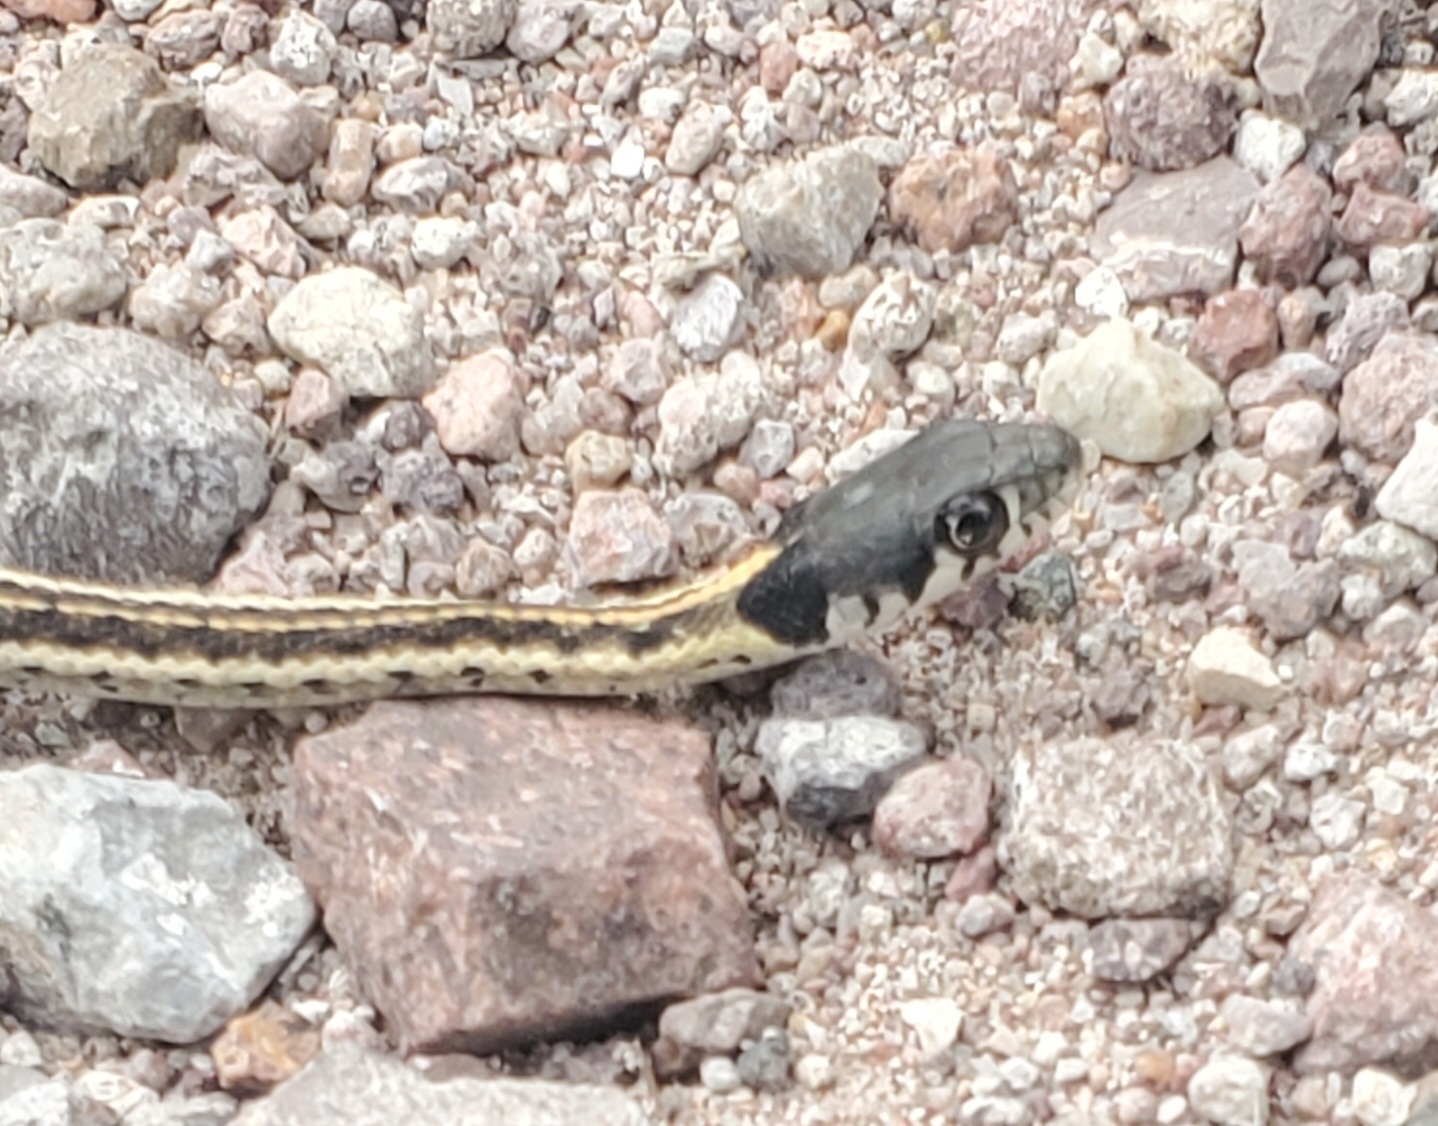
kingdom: Animalia
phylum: Chordata
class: Squamata
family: Colubridae
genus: Thamnophis
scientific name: Thamnophis cyrtopsis
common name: Black-necked gartersnake
